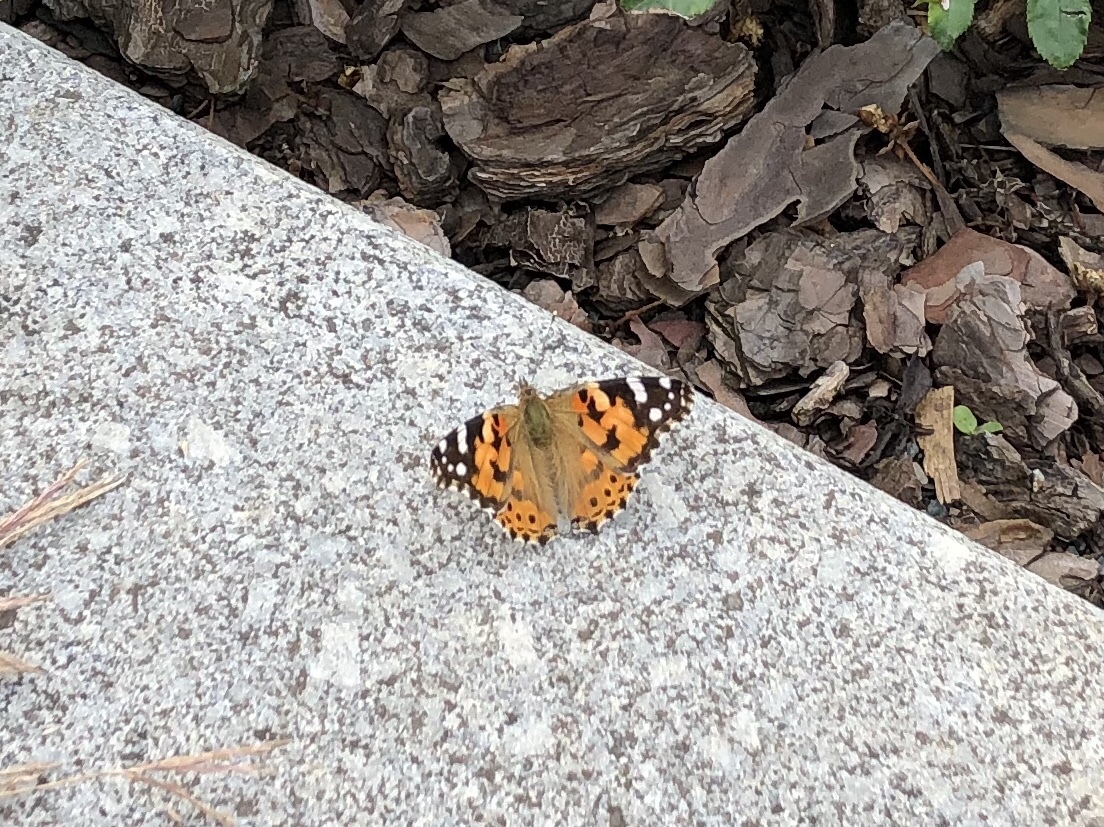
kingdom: Animalia
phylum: Arthropoda
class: Insecta
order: Lepidoptera
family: Nymphalidae
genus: Vanessa
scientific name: Vanessa cardui
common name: Painted lady
